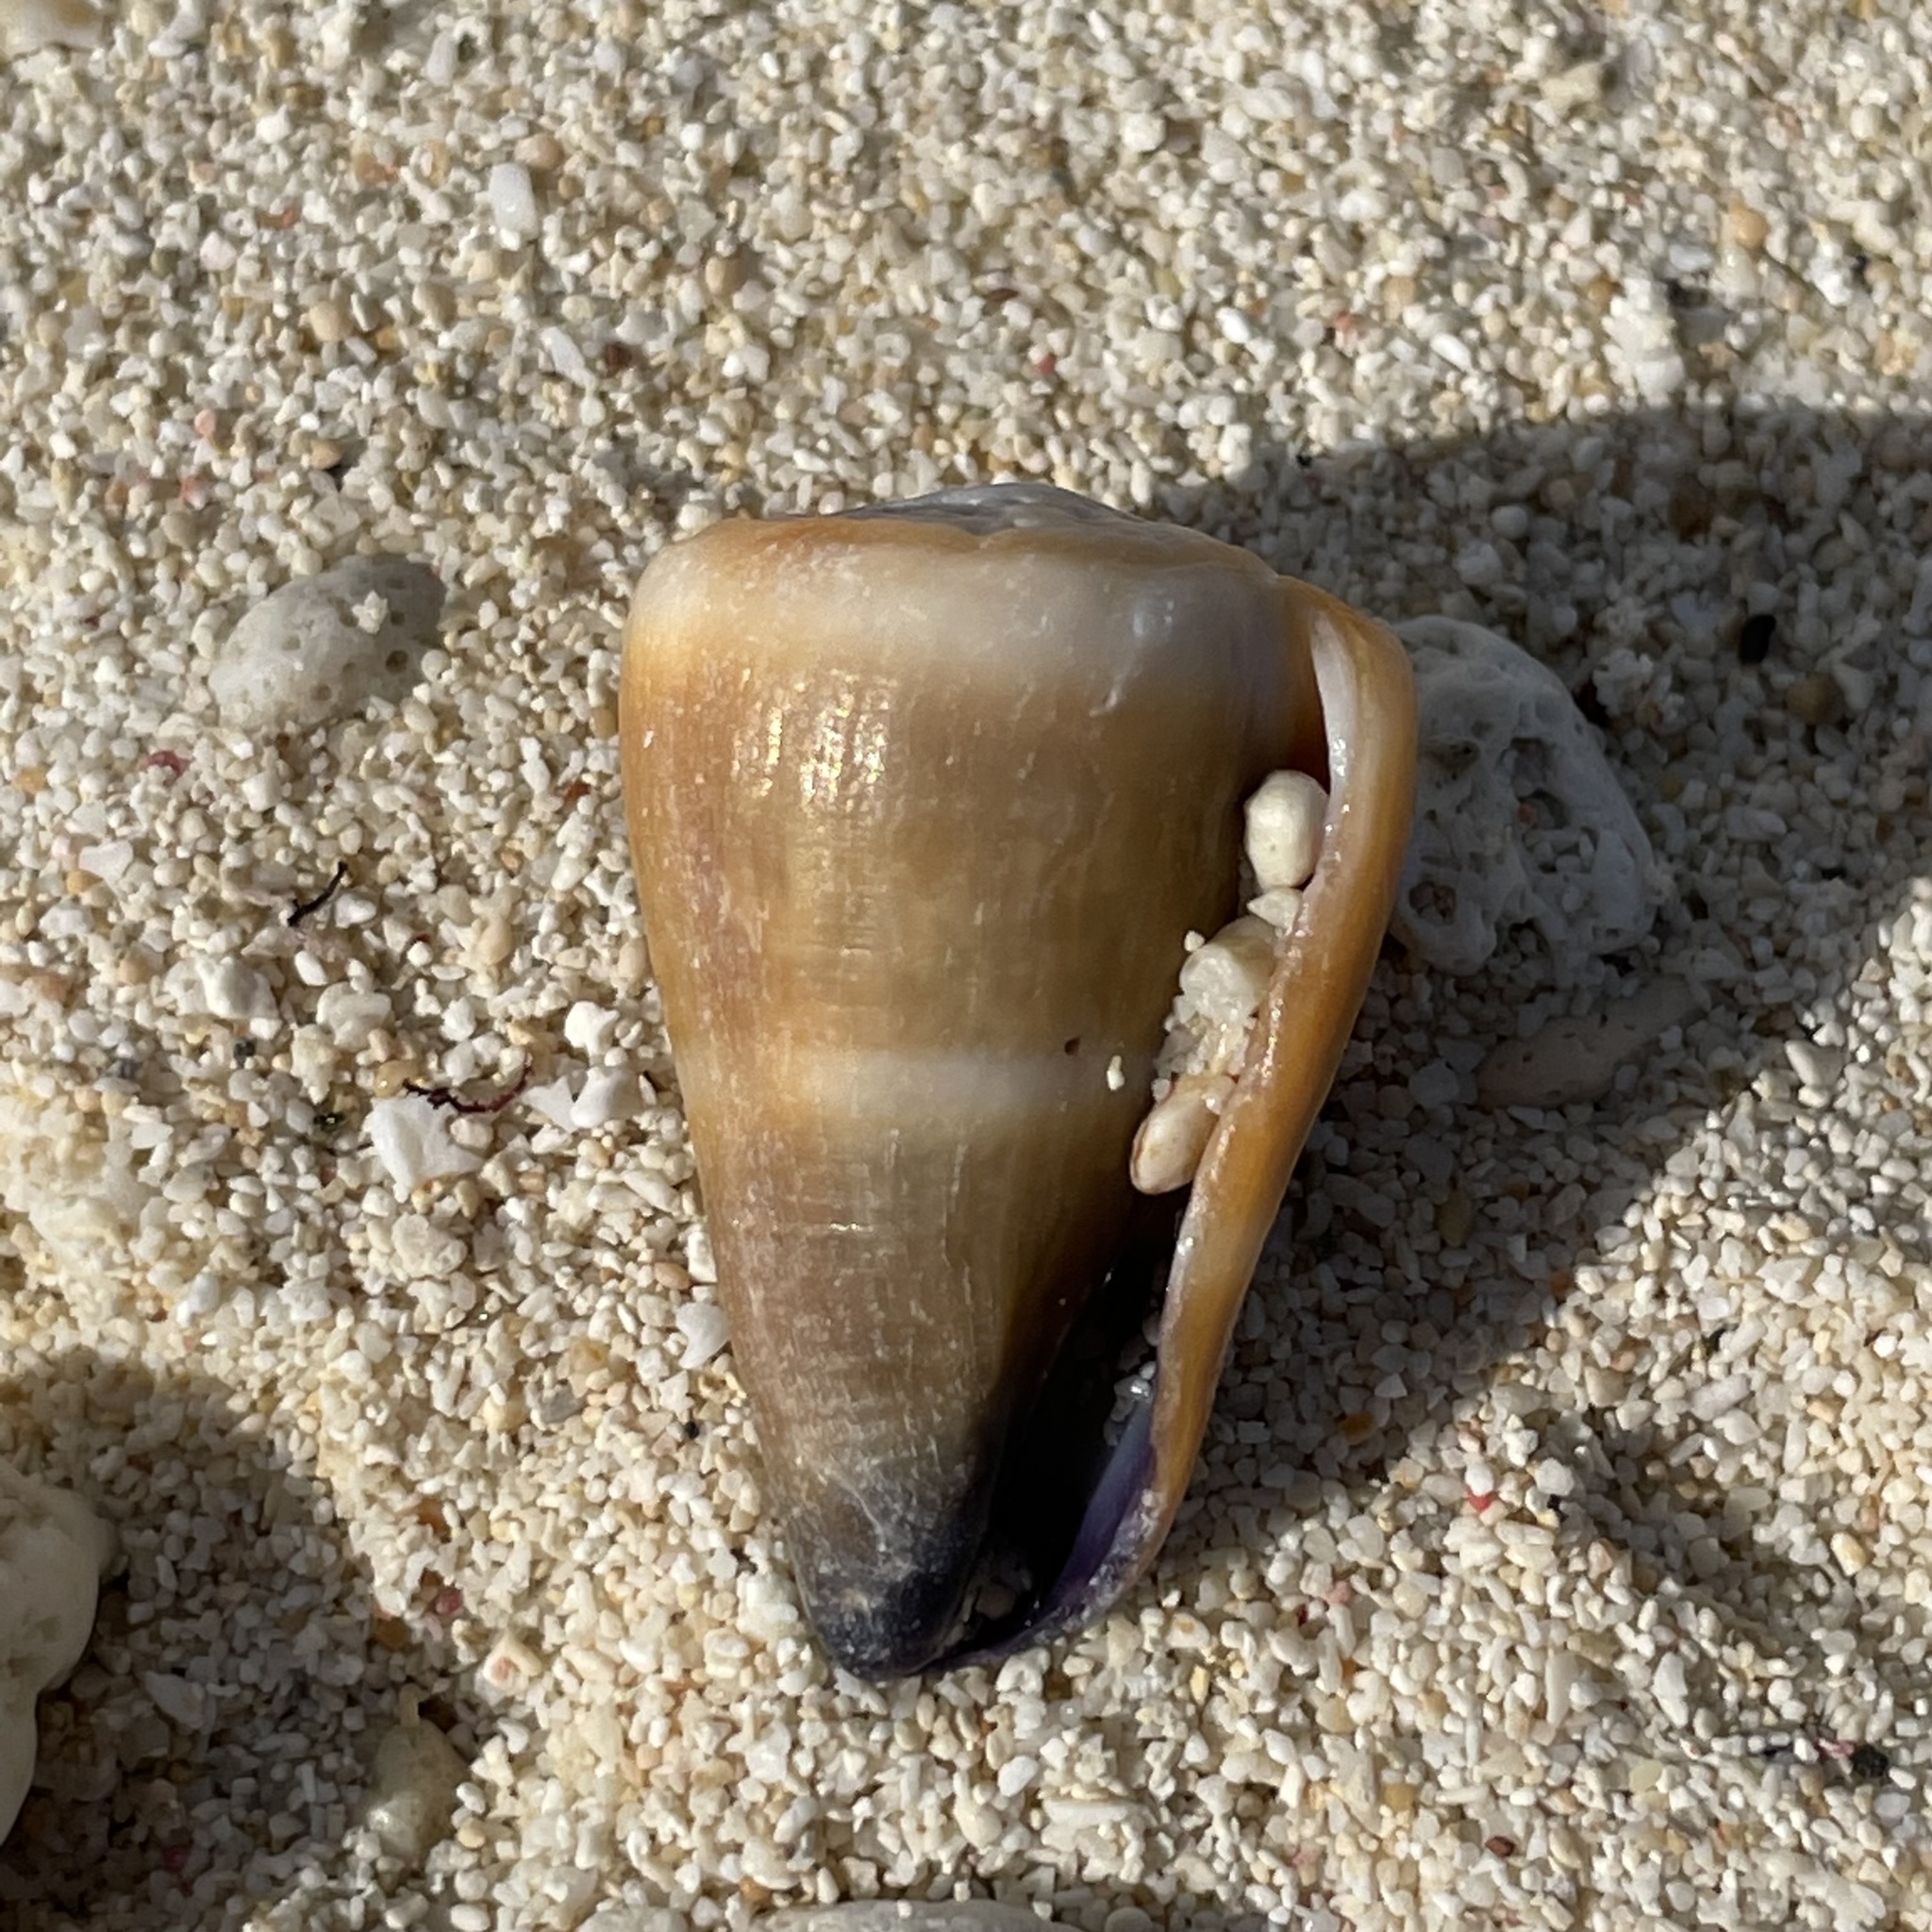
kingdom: Animalia
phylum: Mollusca
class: Gastropoda
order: Neogastropoda
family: Conidae
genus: Conus
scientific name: Conus flavidus
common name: Golden-yellow cone
